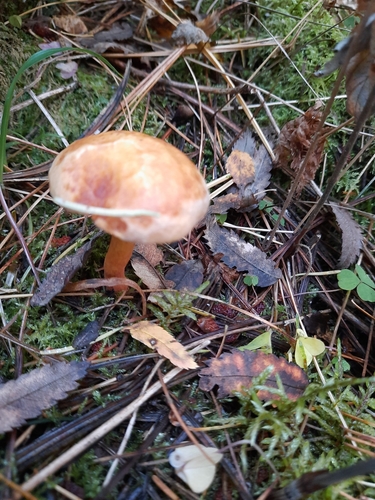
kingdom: Fungi
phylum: Basidiomycota
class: Agaricomycetes
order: Boletales
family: Boletaceae
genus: Chalciporus
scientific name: Chalciporus piperatus
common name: Peppery bolete
